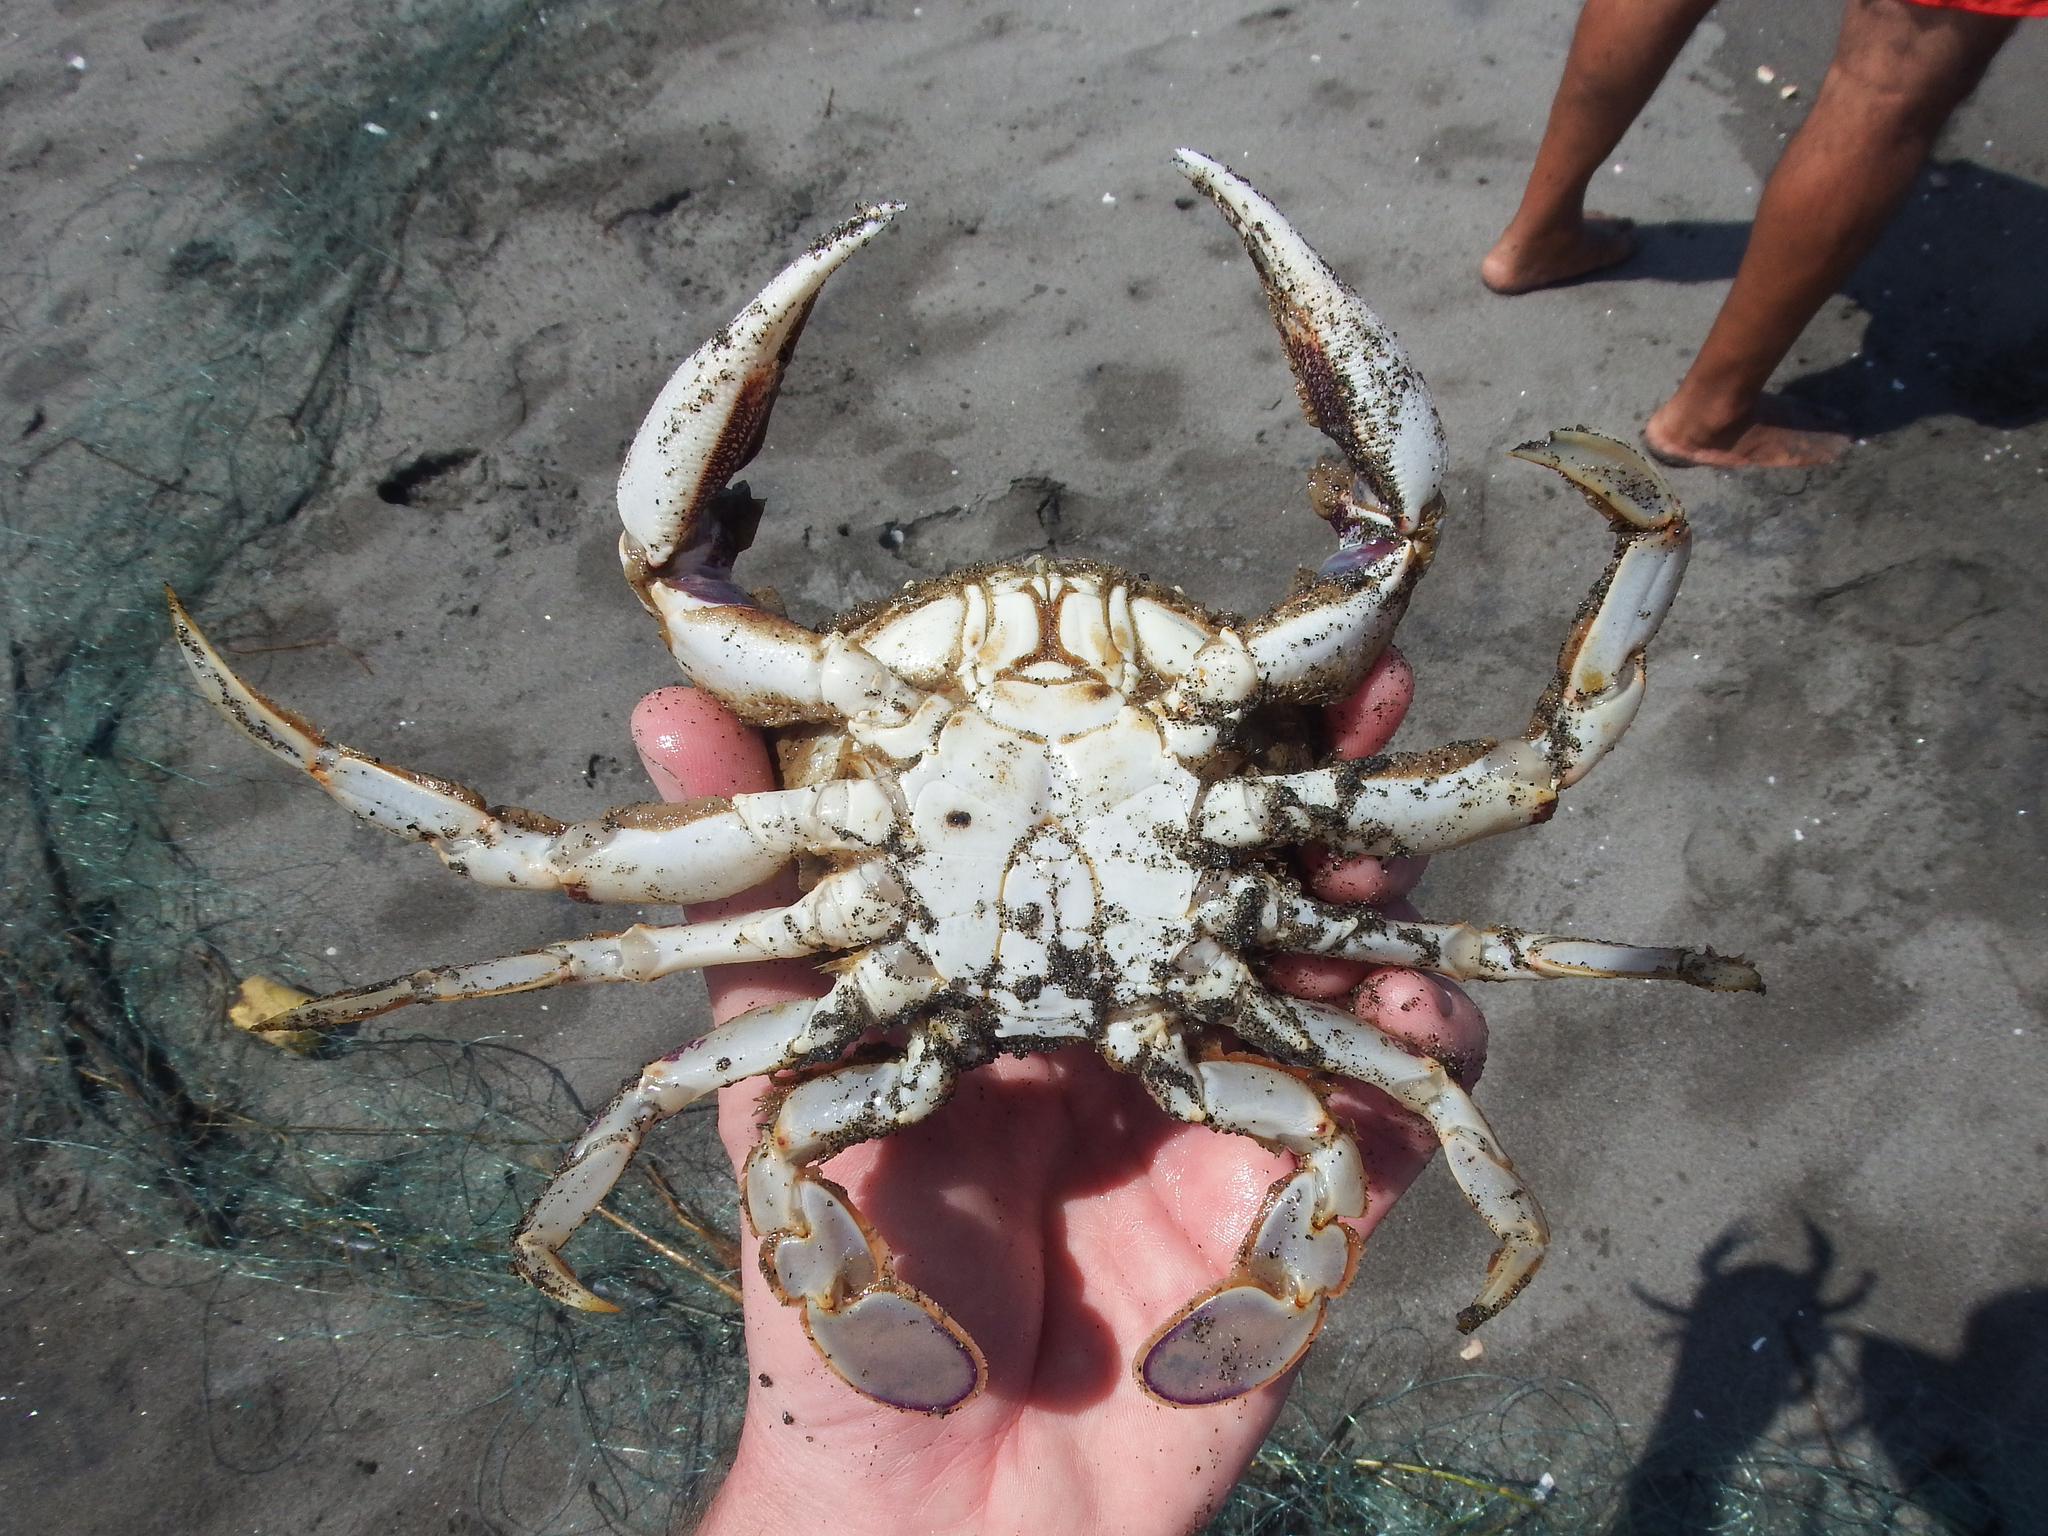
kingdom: Animalia
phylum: Arthropoda
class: Malacostraca
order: Decapoda
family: Ovalipidae
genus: Ovalipes
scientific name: Ovalipes trimaculatus
